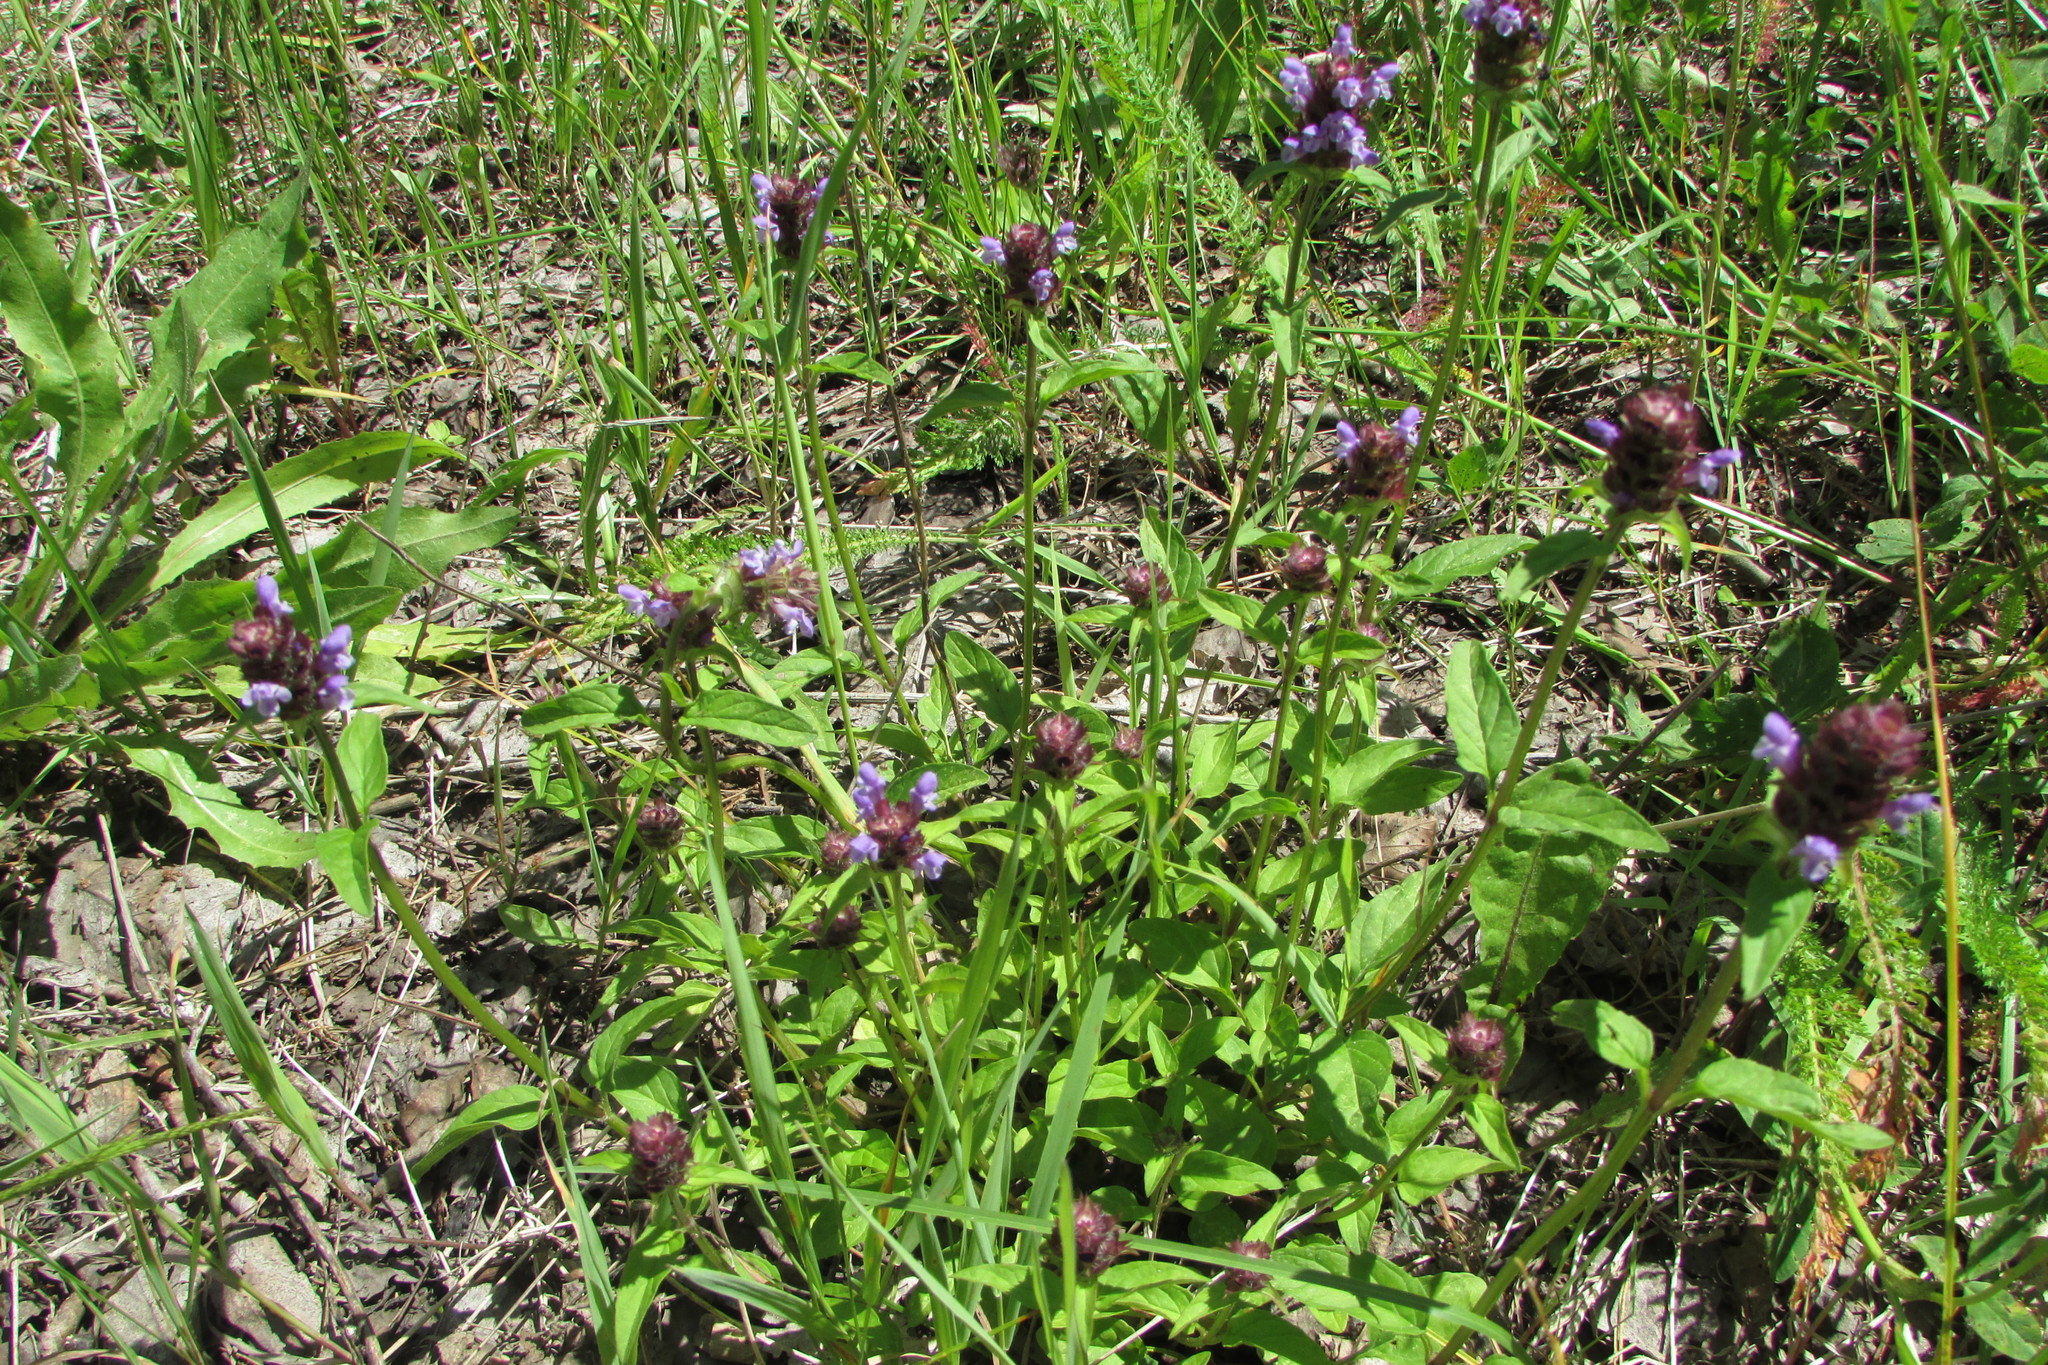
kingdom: Plantae
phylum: Tracheophyta
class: Magnoliopsida
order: Lamiales
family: Lamiaceae
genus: Prunella
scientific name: Prunella vulgaris
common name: Heal-all
